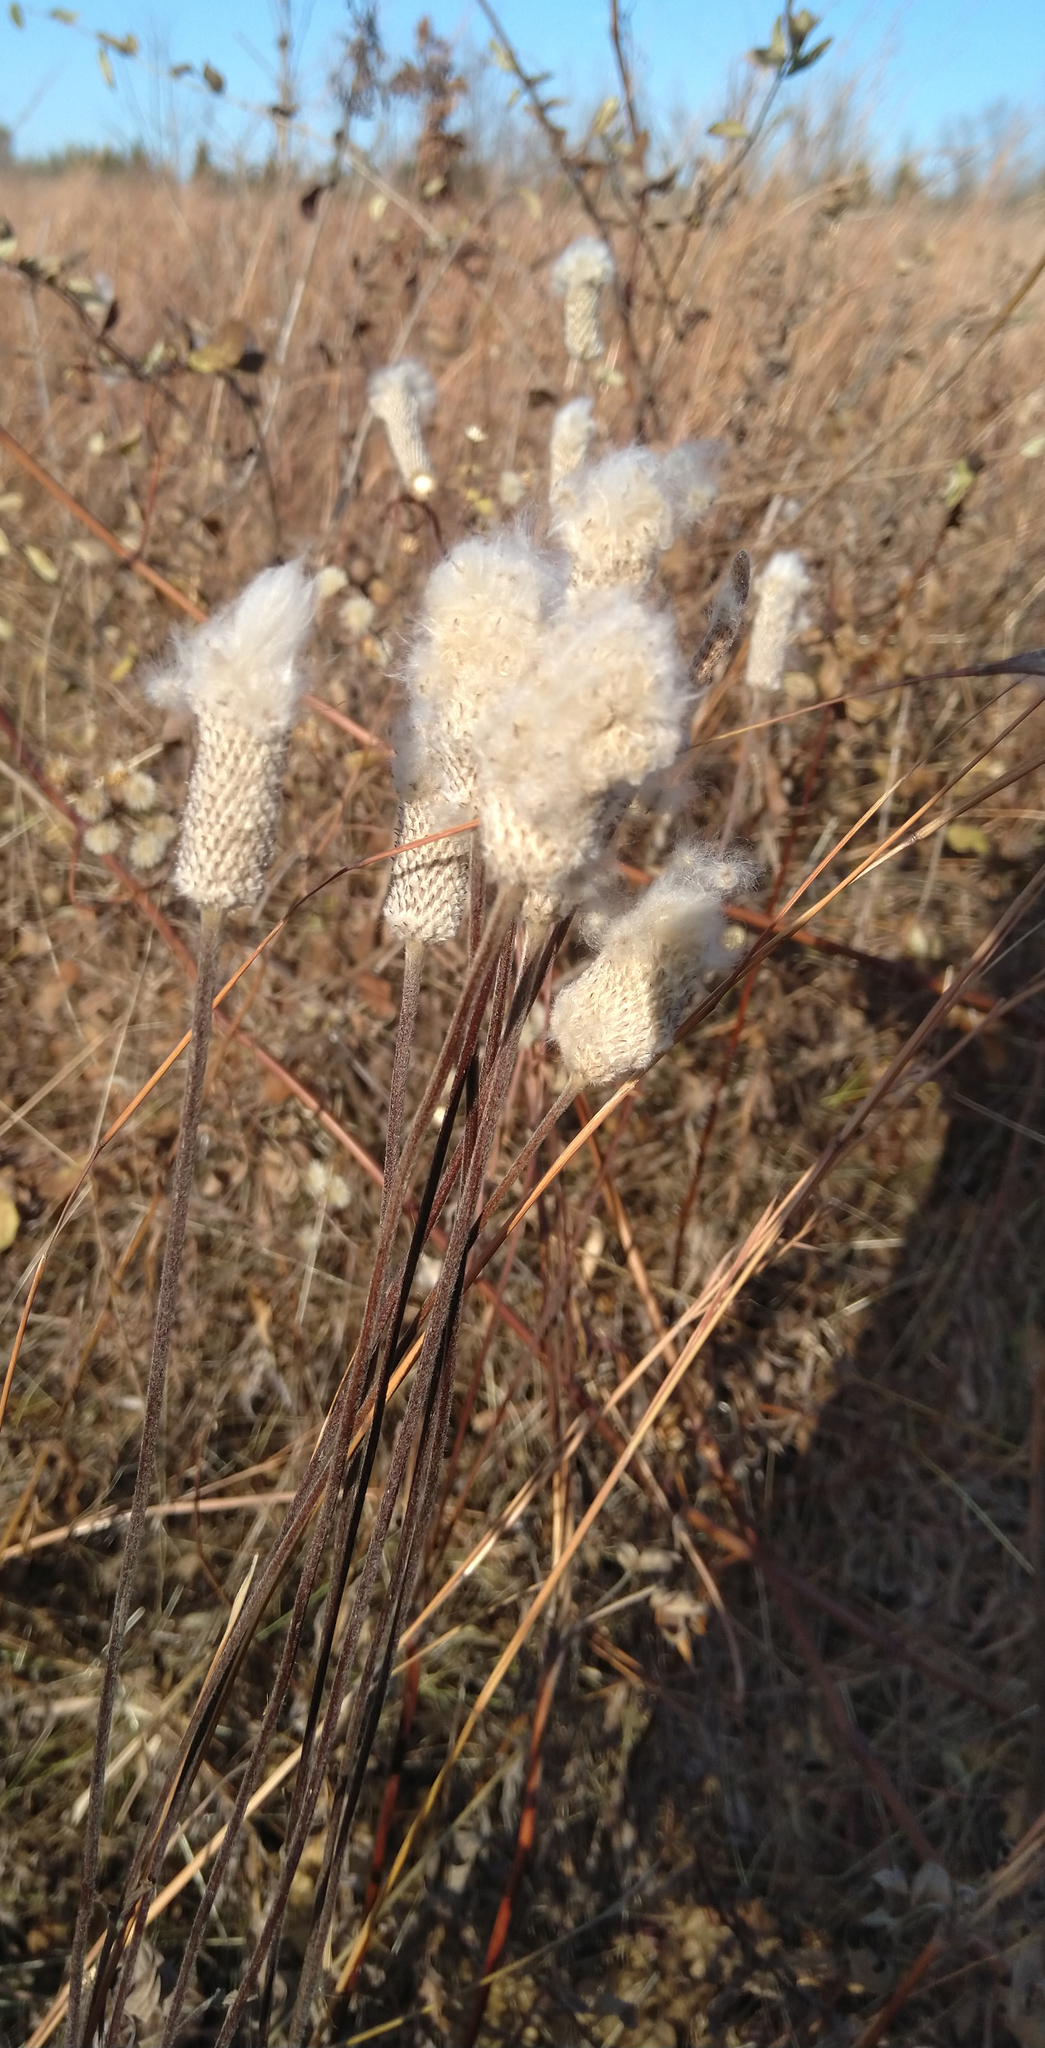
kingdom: Plantae
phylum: Tracheophyta
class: Magnoliopsida
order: Ranunculales
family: Ranunculaceae
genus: Anemone
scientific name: Anemone cylindrica
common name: Candle anemone
